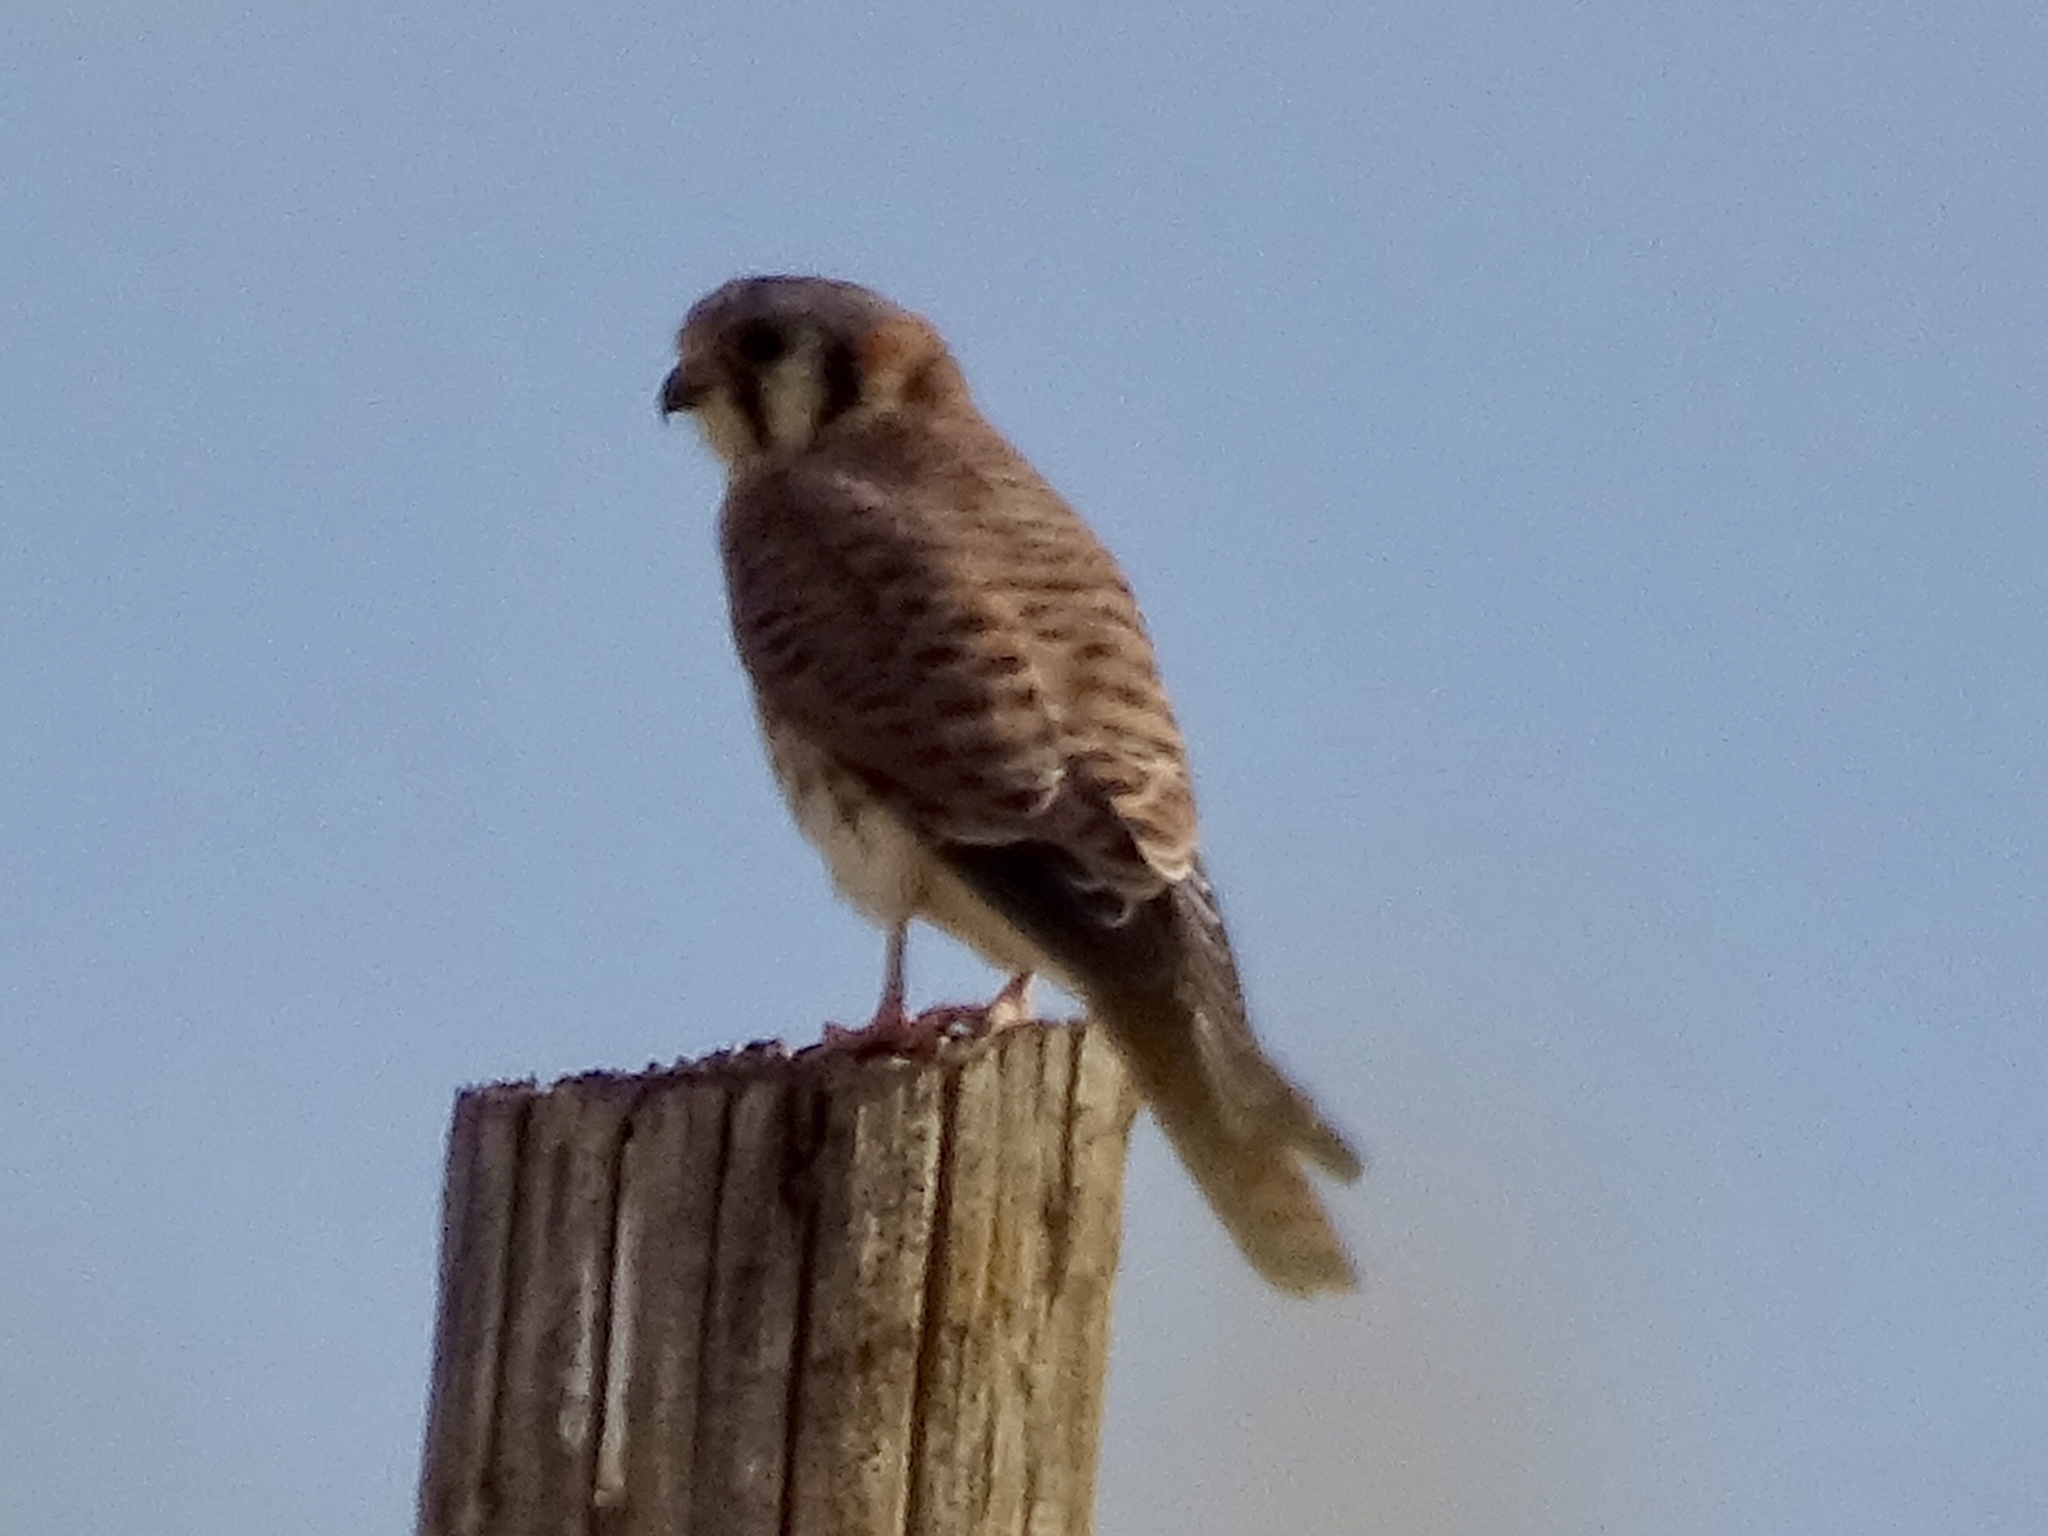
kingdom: Animalia
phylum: Chordata
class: Aves
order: Falconiformes
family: Falconidae
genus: Falco
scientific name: Falco sparverius
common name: American kestrel
